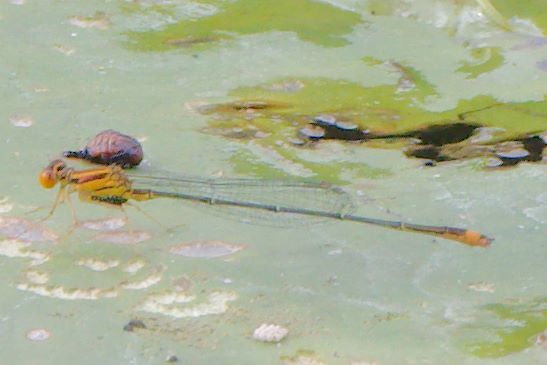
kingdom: Animalia
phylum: Arthropoda
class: Insecta
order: Odonata
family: Coenagrionidae
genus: Enallagma
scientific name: Enallagma pollutum
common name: Florida bluet
